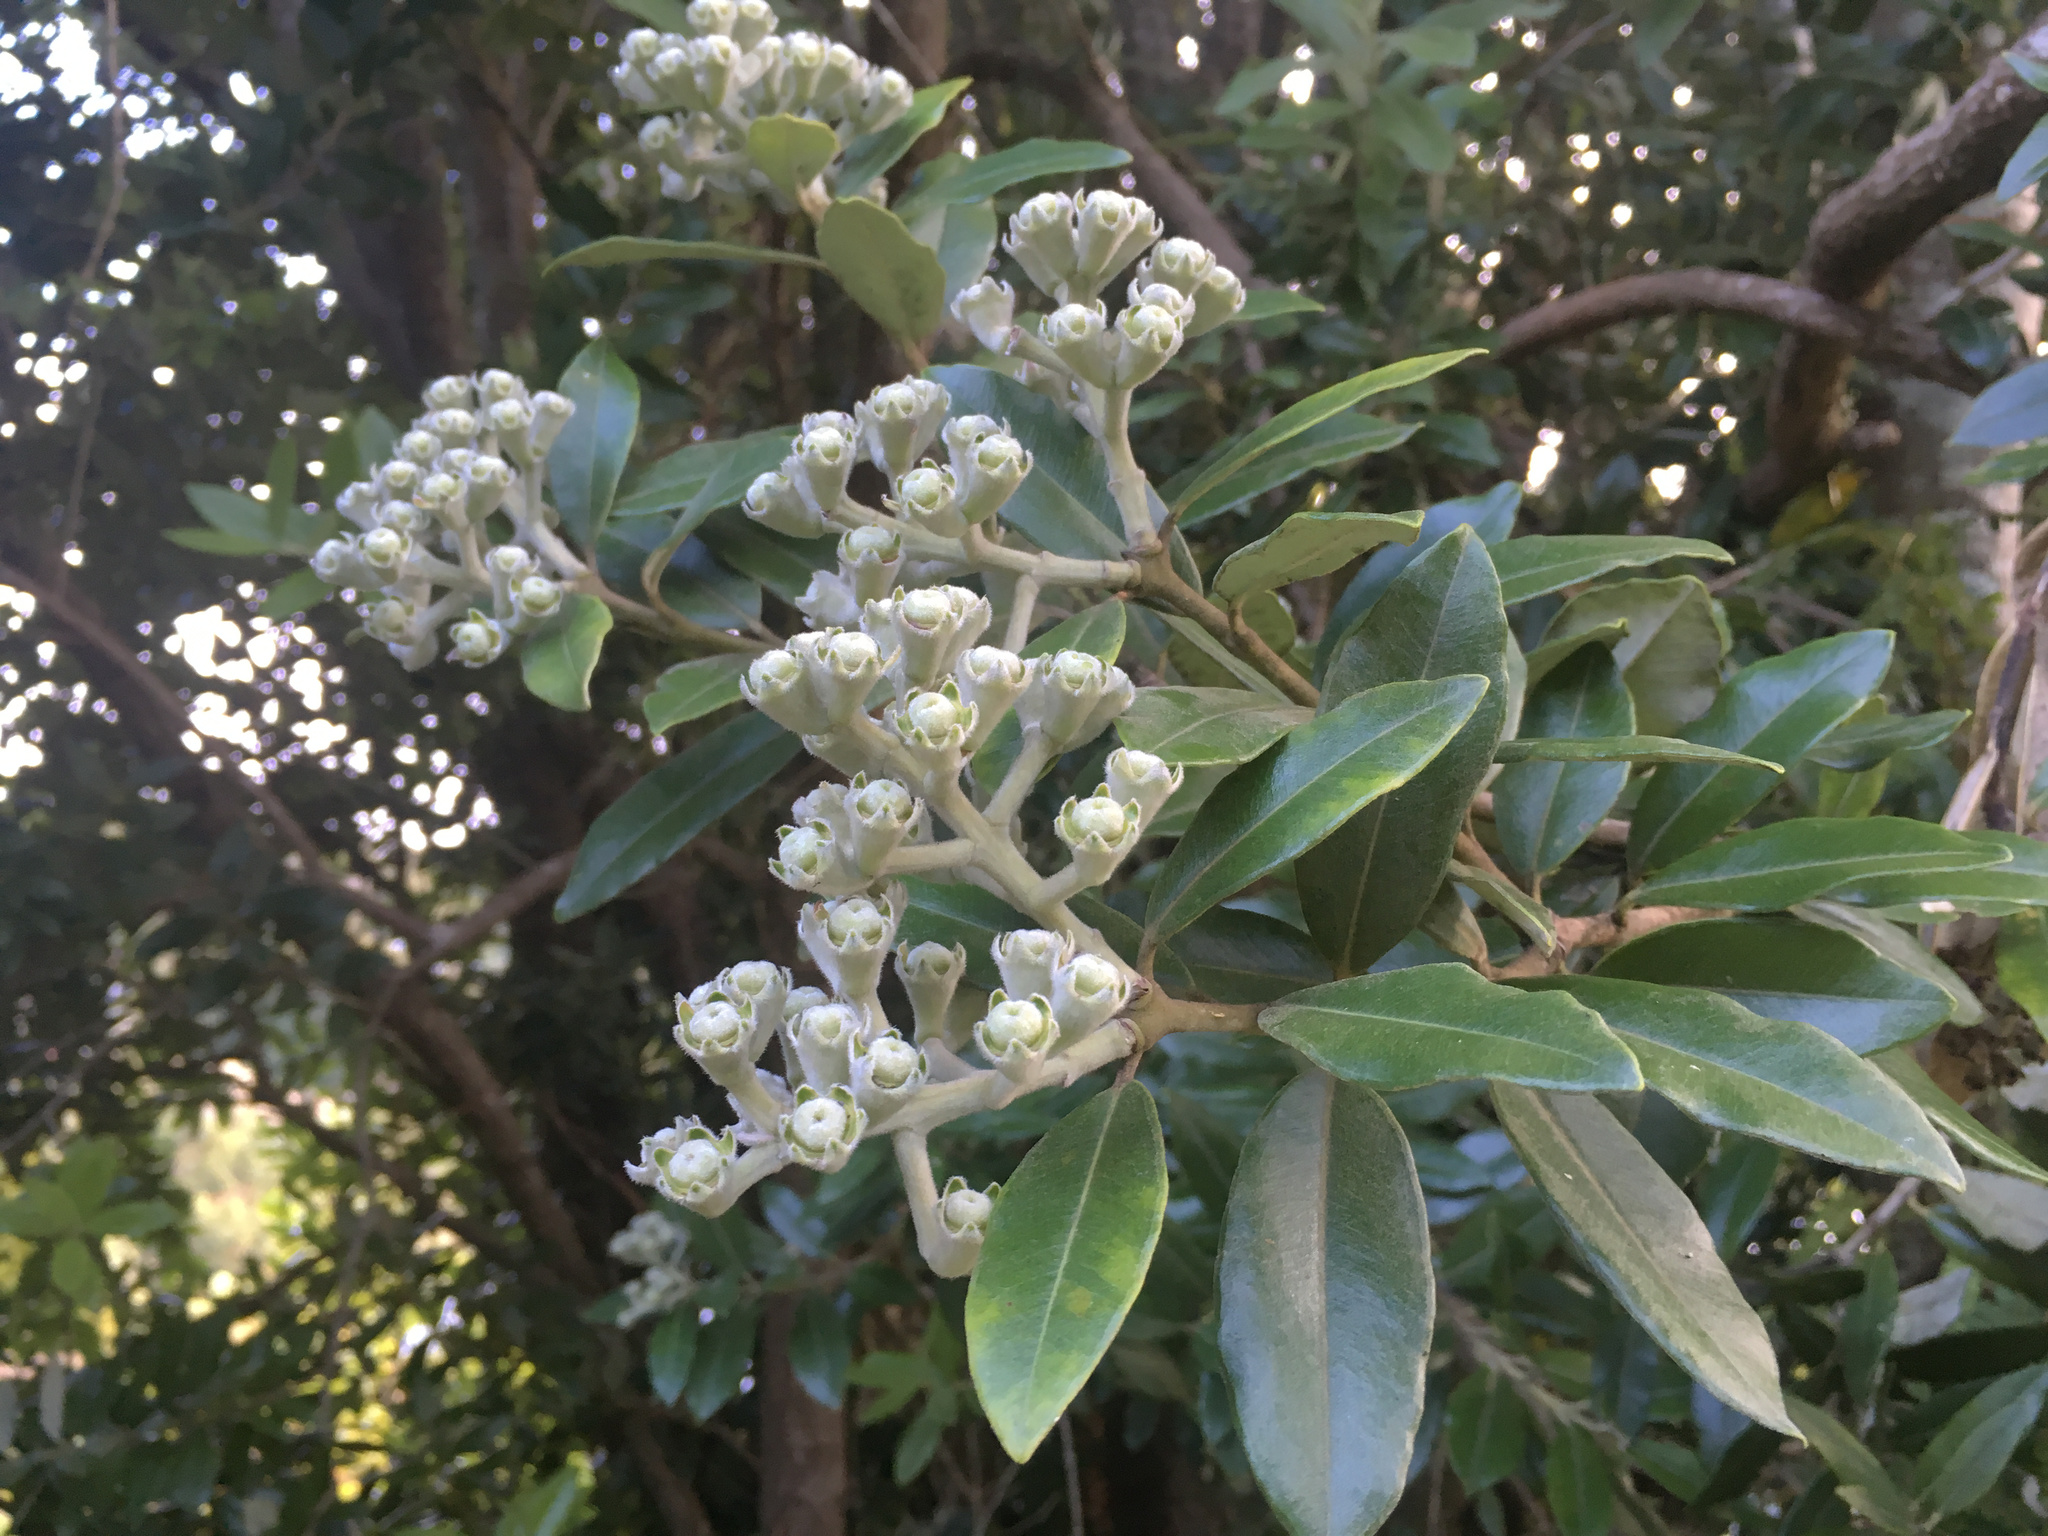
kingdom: Plantae
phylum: Tracheophyta
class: Magnoliopsida
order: Myrtales
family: Myrtaceae
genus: Metrosideros
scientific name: Metrosideros excelsa
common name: New zealand christmastree
